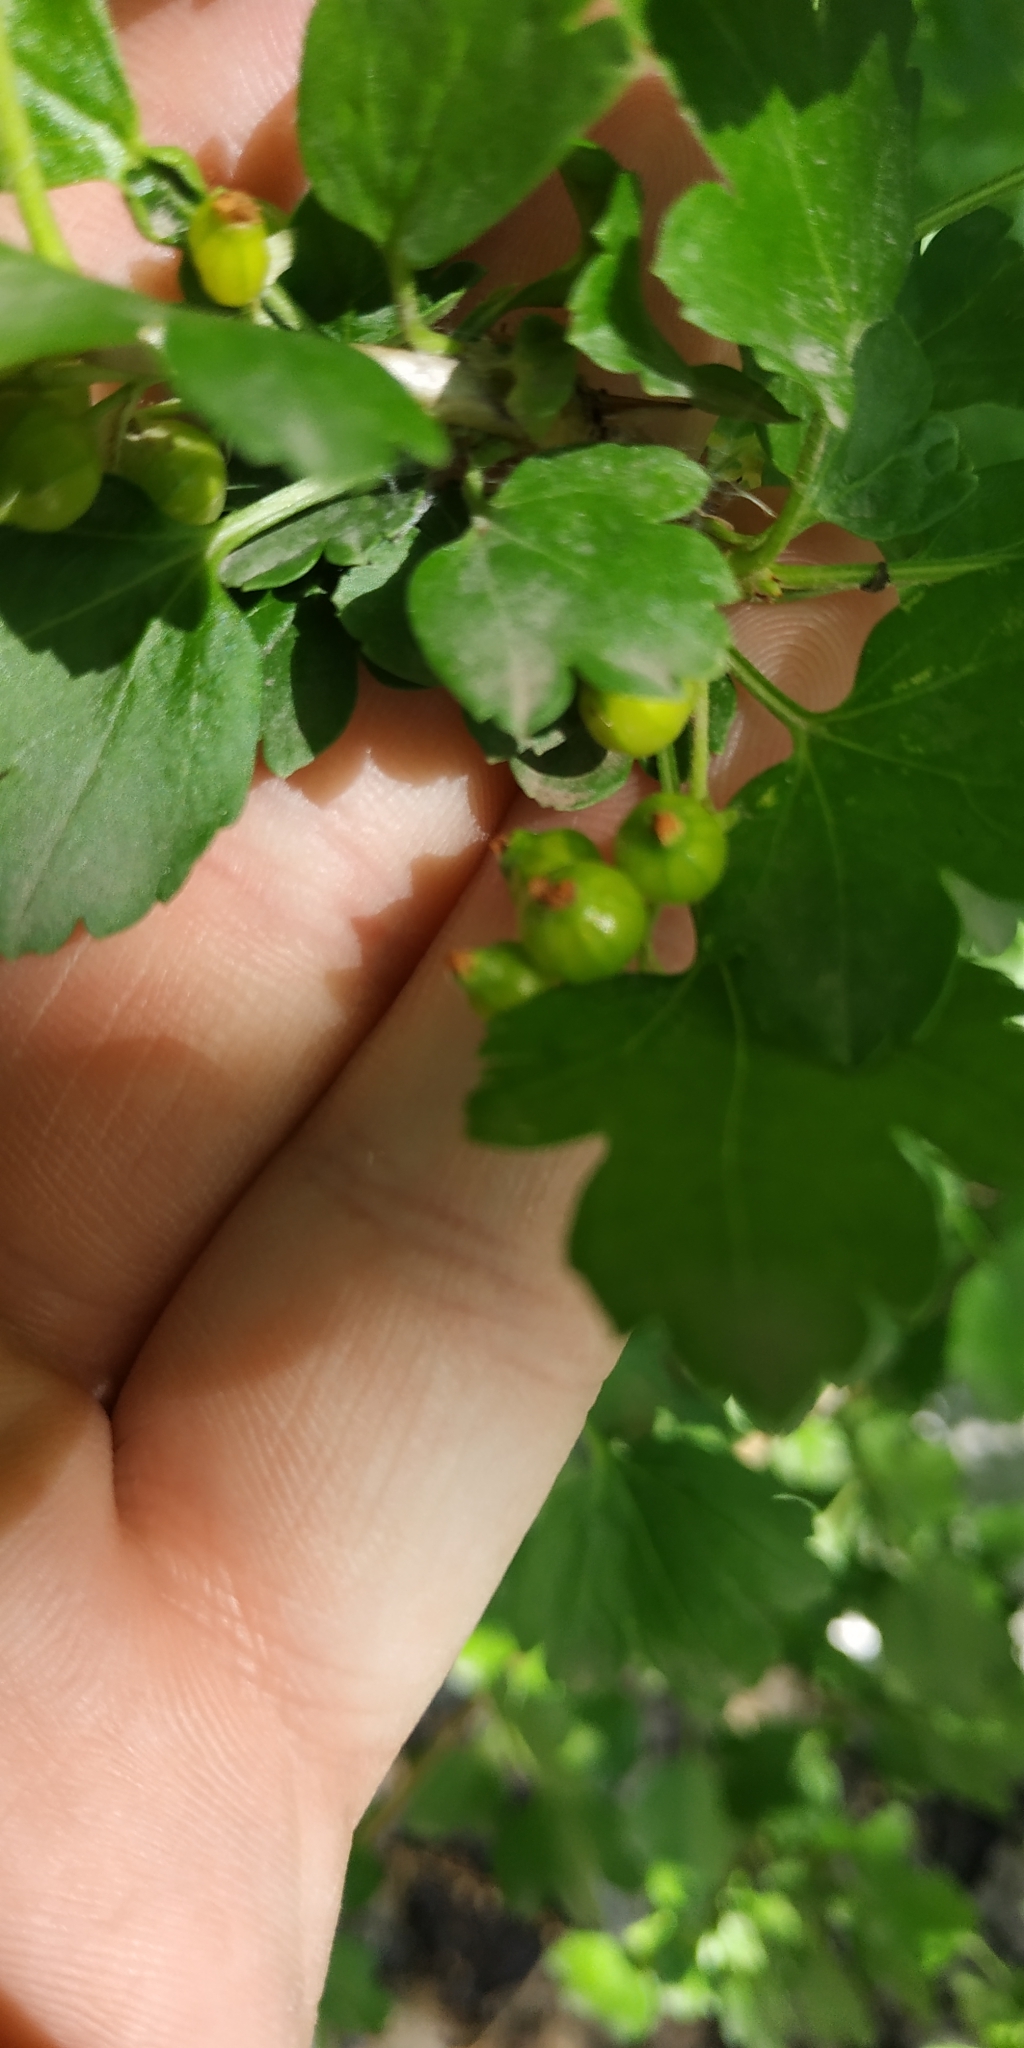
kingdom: Plantae
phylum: Tracheophyta
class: Magnoliopsida
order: Saxifragales
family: Grossulariaceae
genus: Ribes
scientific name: Ribes alpinum
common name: Alpine currant
